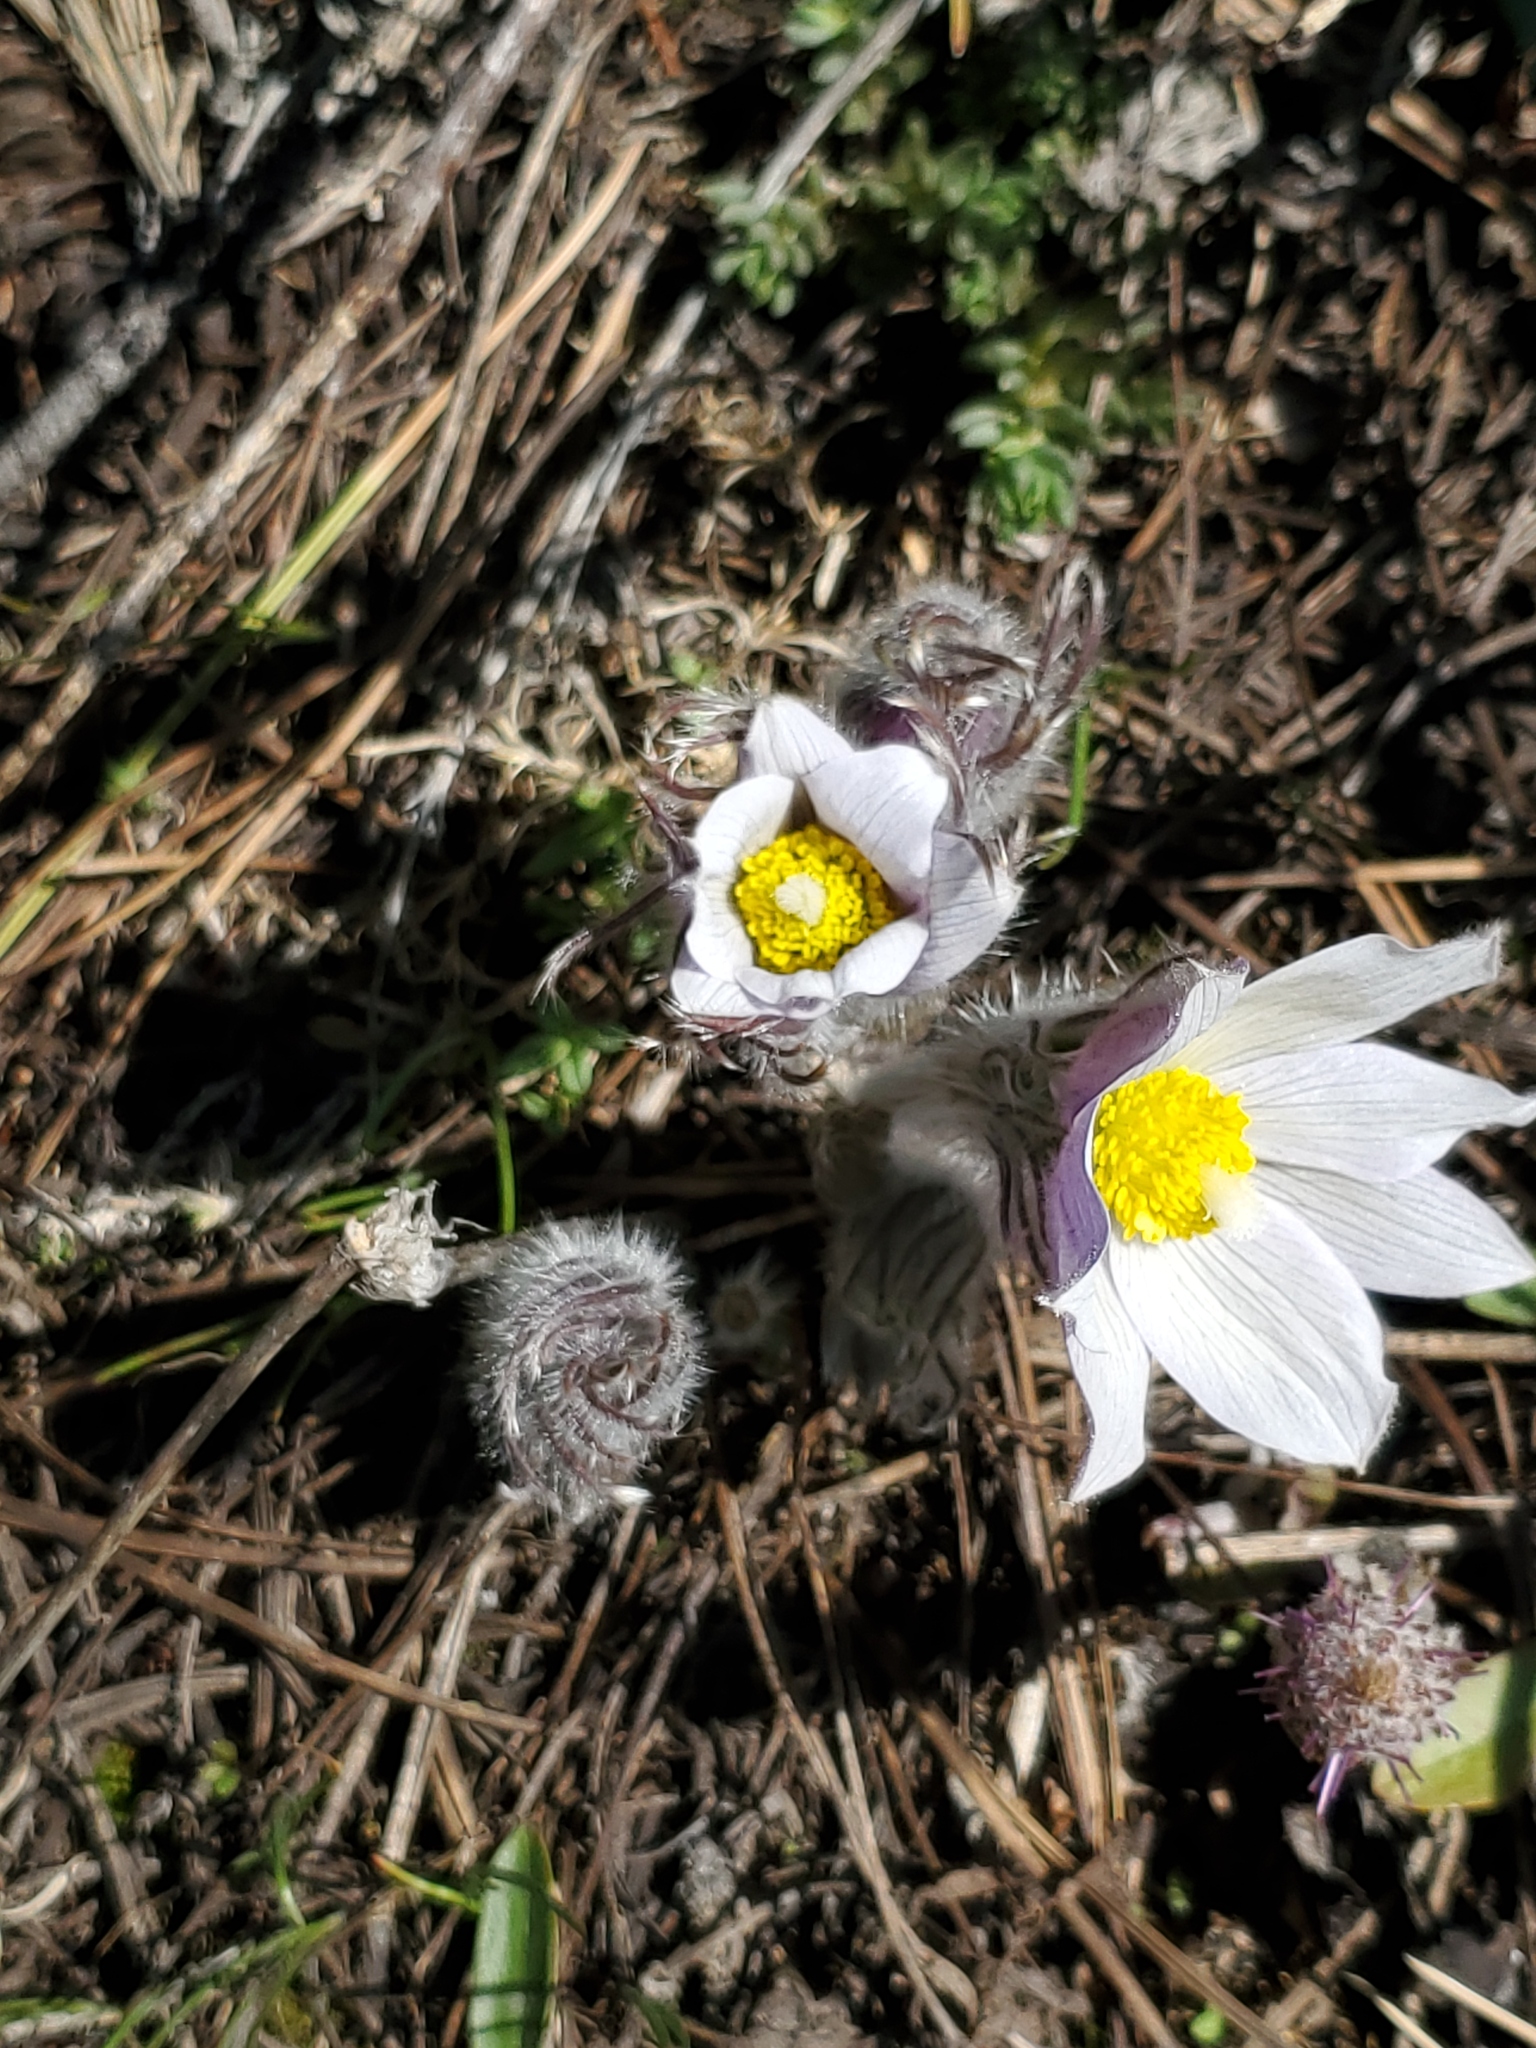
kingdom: Plantae
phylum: Tracheophyta
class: Magnoliopsida
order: Ranunculales
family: Ranunculaceae
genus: Pulsatilla
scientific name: Pulsatilla nuttalliana
